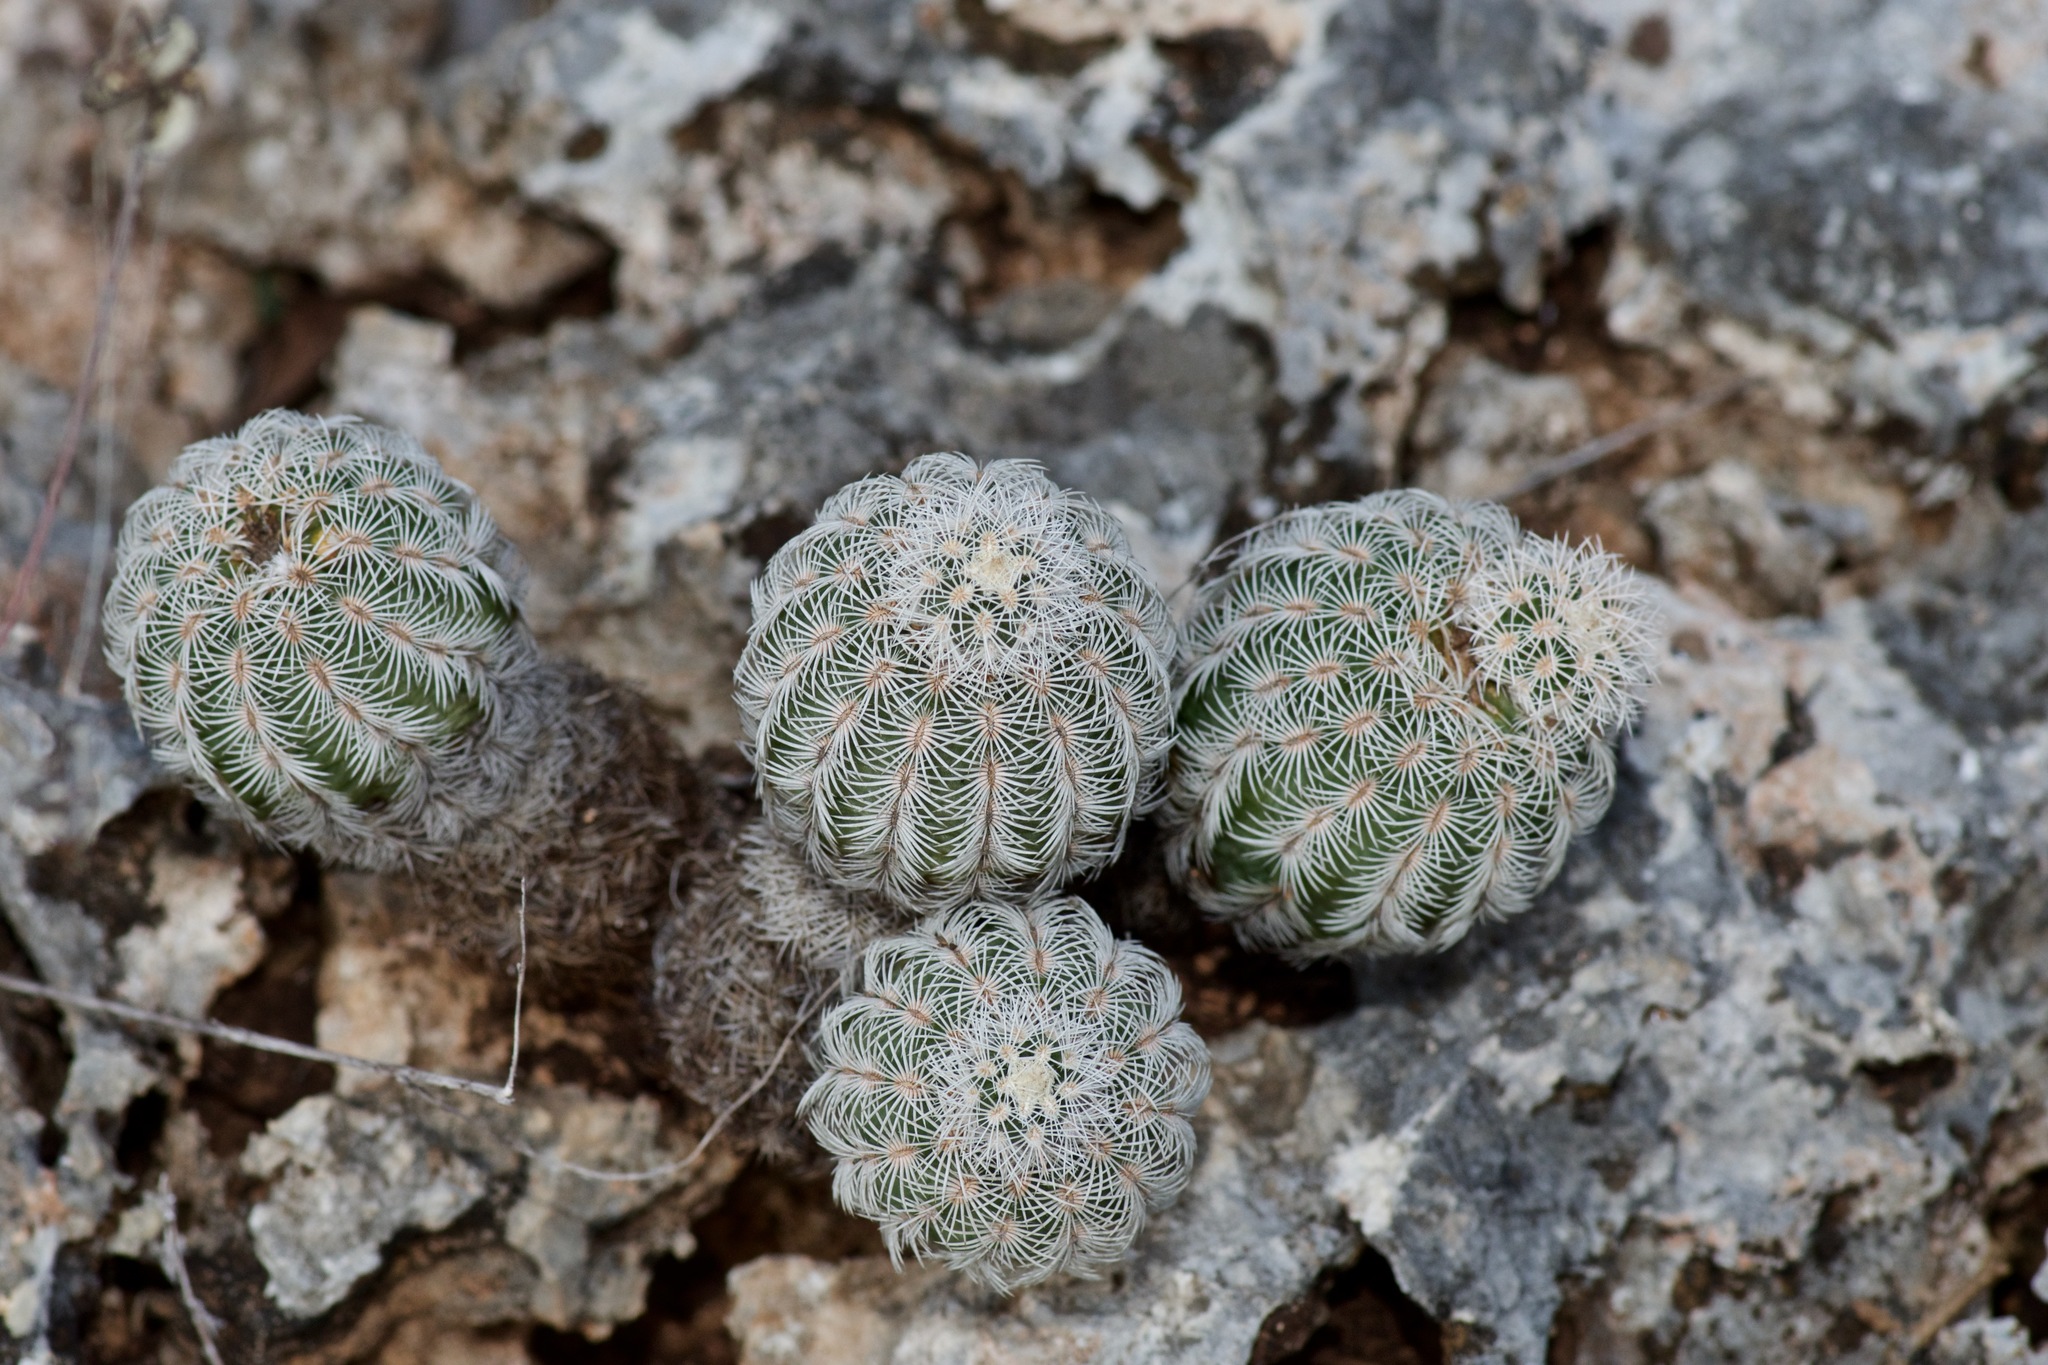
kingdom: Plantae
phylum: Tracheophyta
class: Magnoliopsida
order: Caryophyllales
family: Cactaceae
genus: Echinocereus
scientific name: Echinocereus reichenbachii
